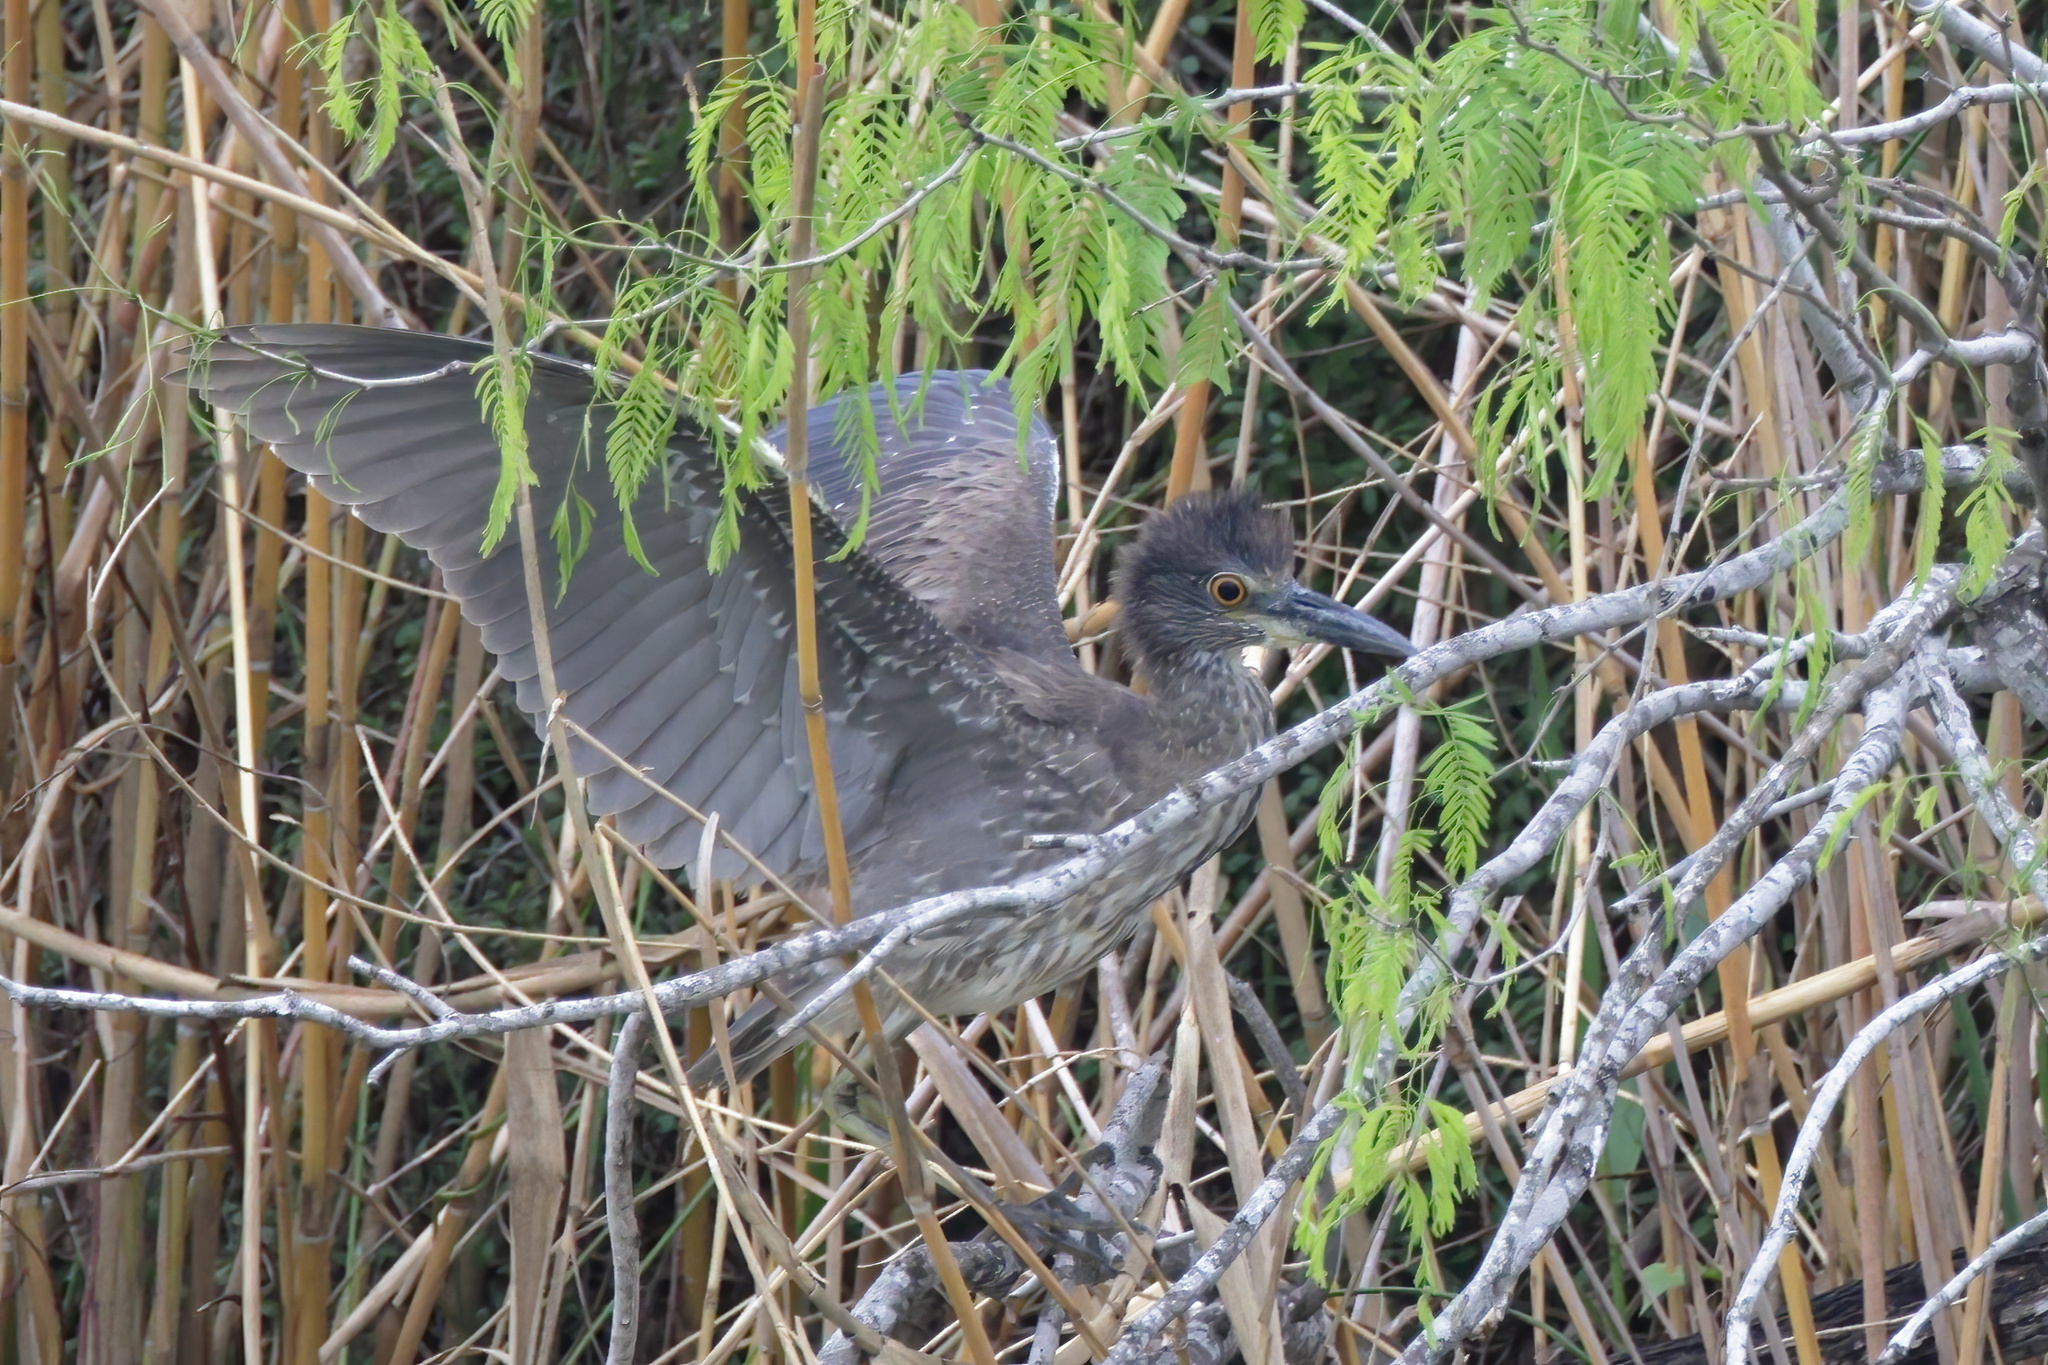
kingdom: Animalia
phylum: Chordata
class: Aves
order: Pelecaniformes
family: Ardeidae
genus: Nyctanassa
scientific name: Nyctanassa violacea
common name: Yellow-crowned night heron
